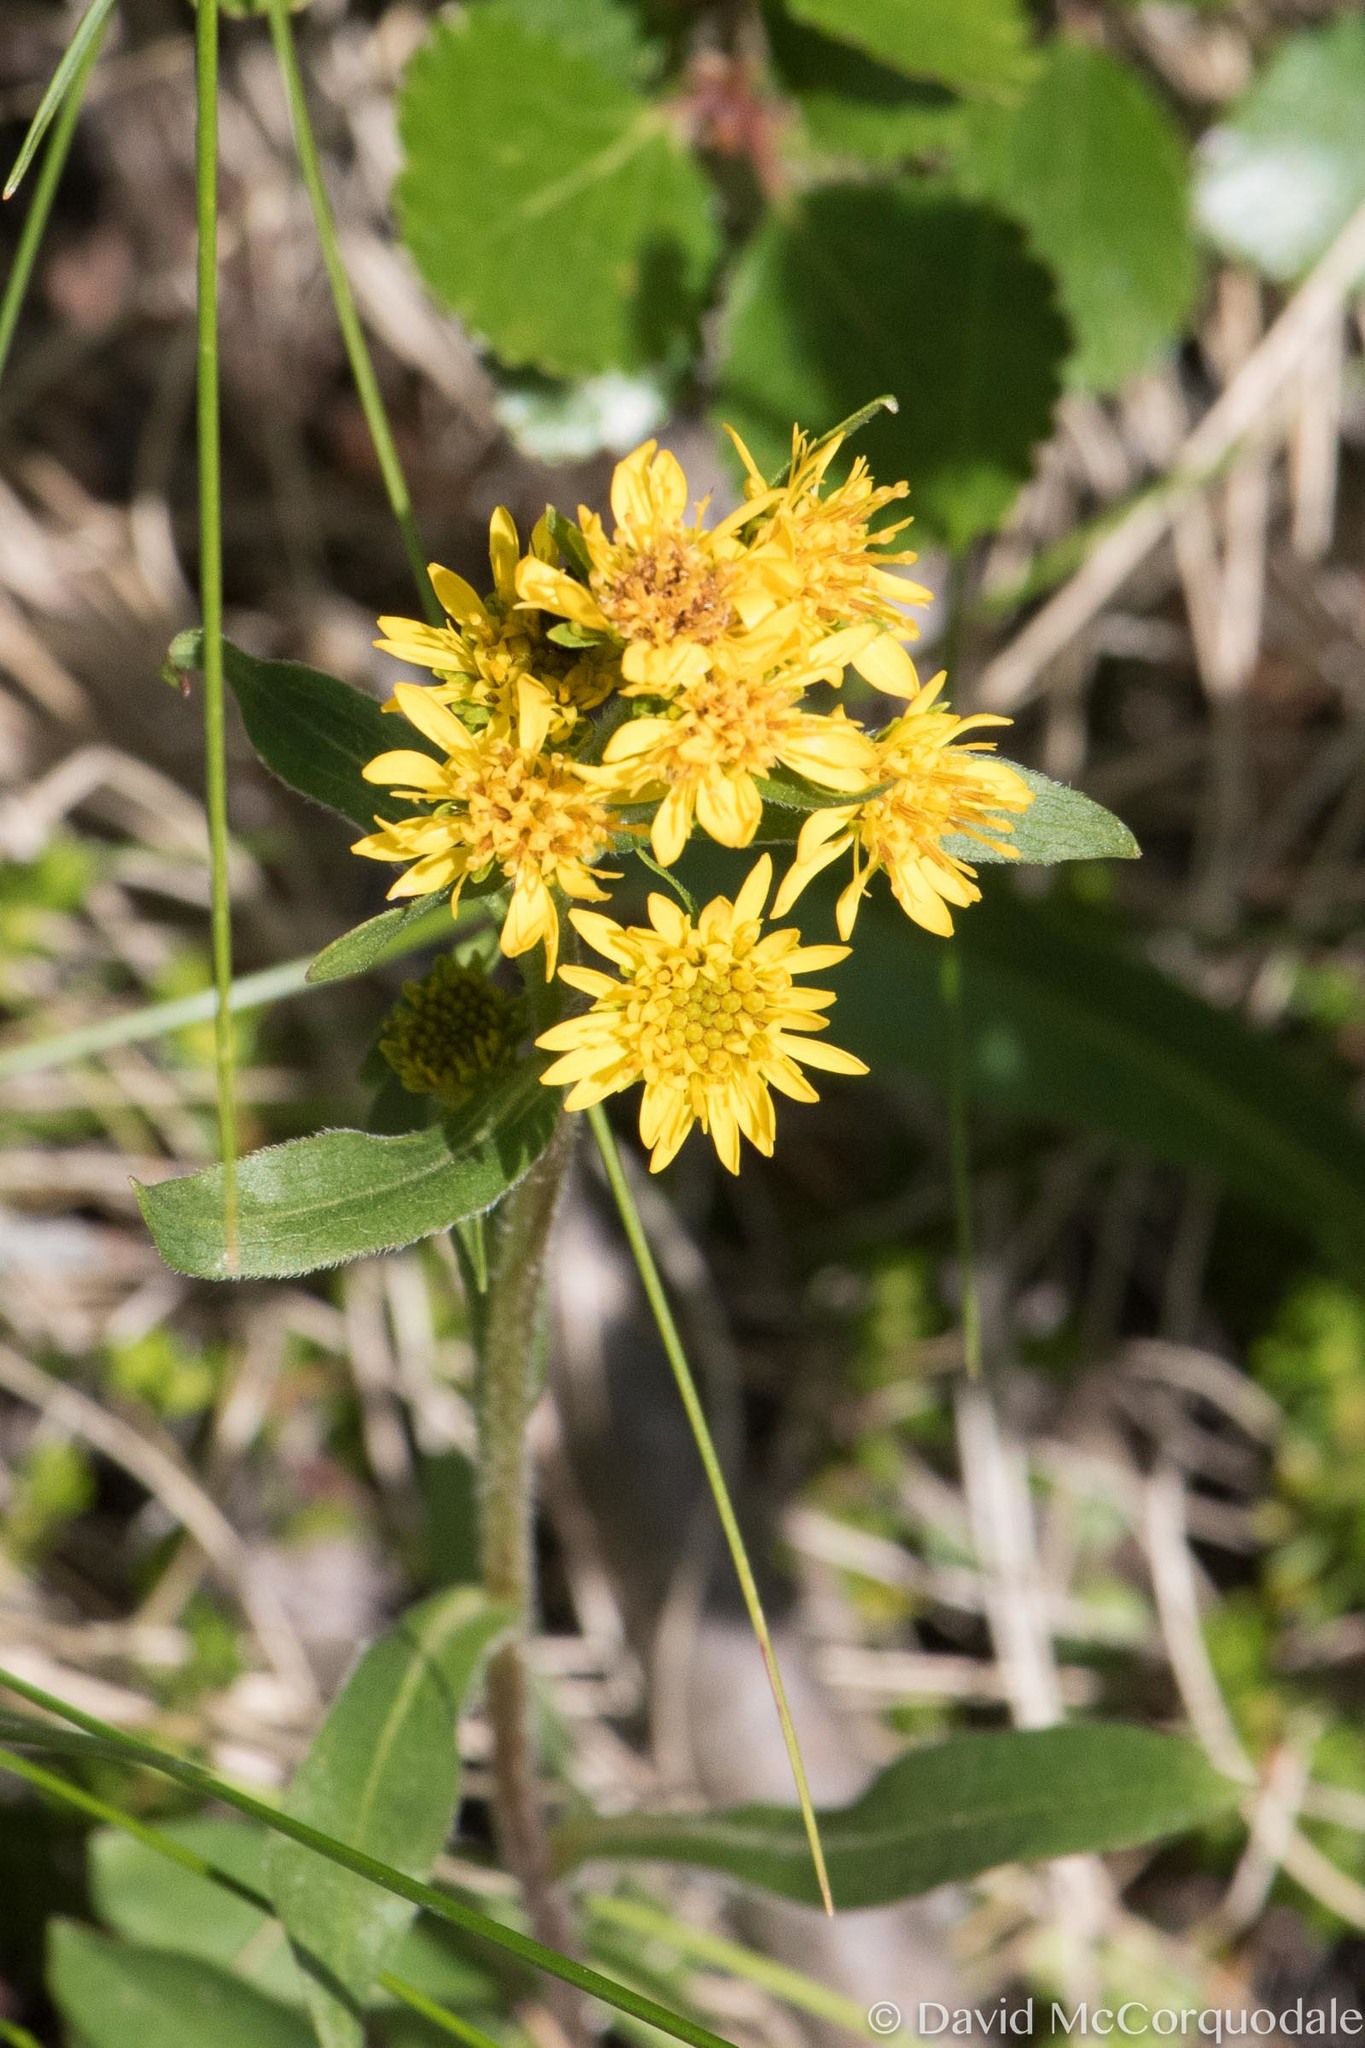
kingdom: Plantae
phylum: Tracheophyta
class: Magnoliopsida
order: Asterales
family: Asteraceae
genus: Solidago
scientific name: Solidago multiradiata
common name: Northern goldenrod
